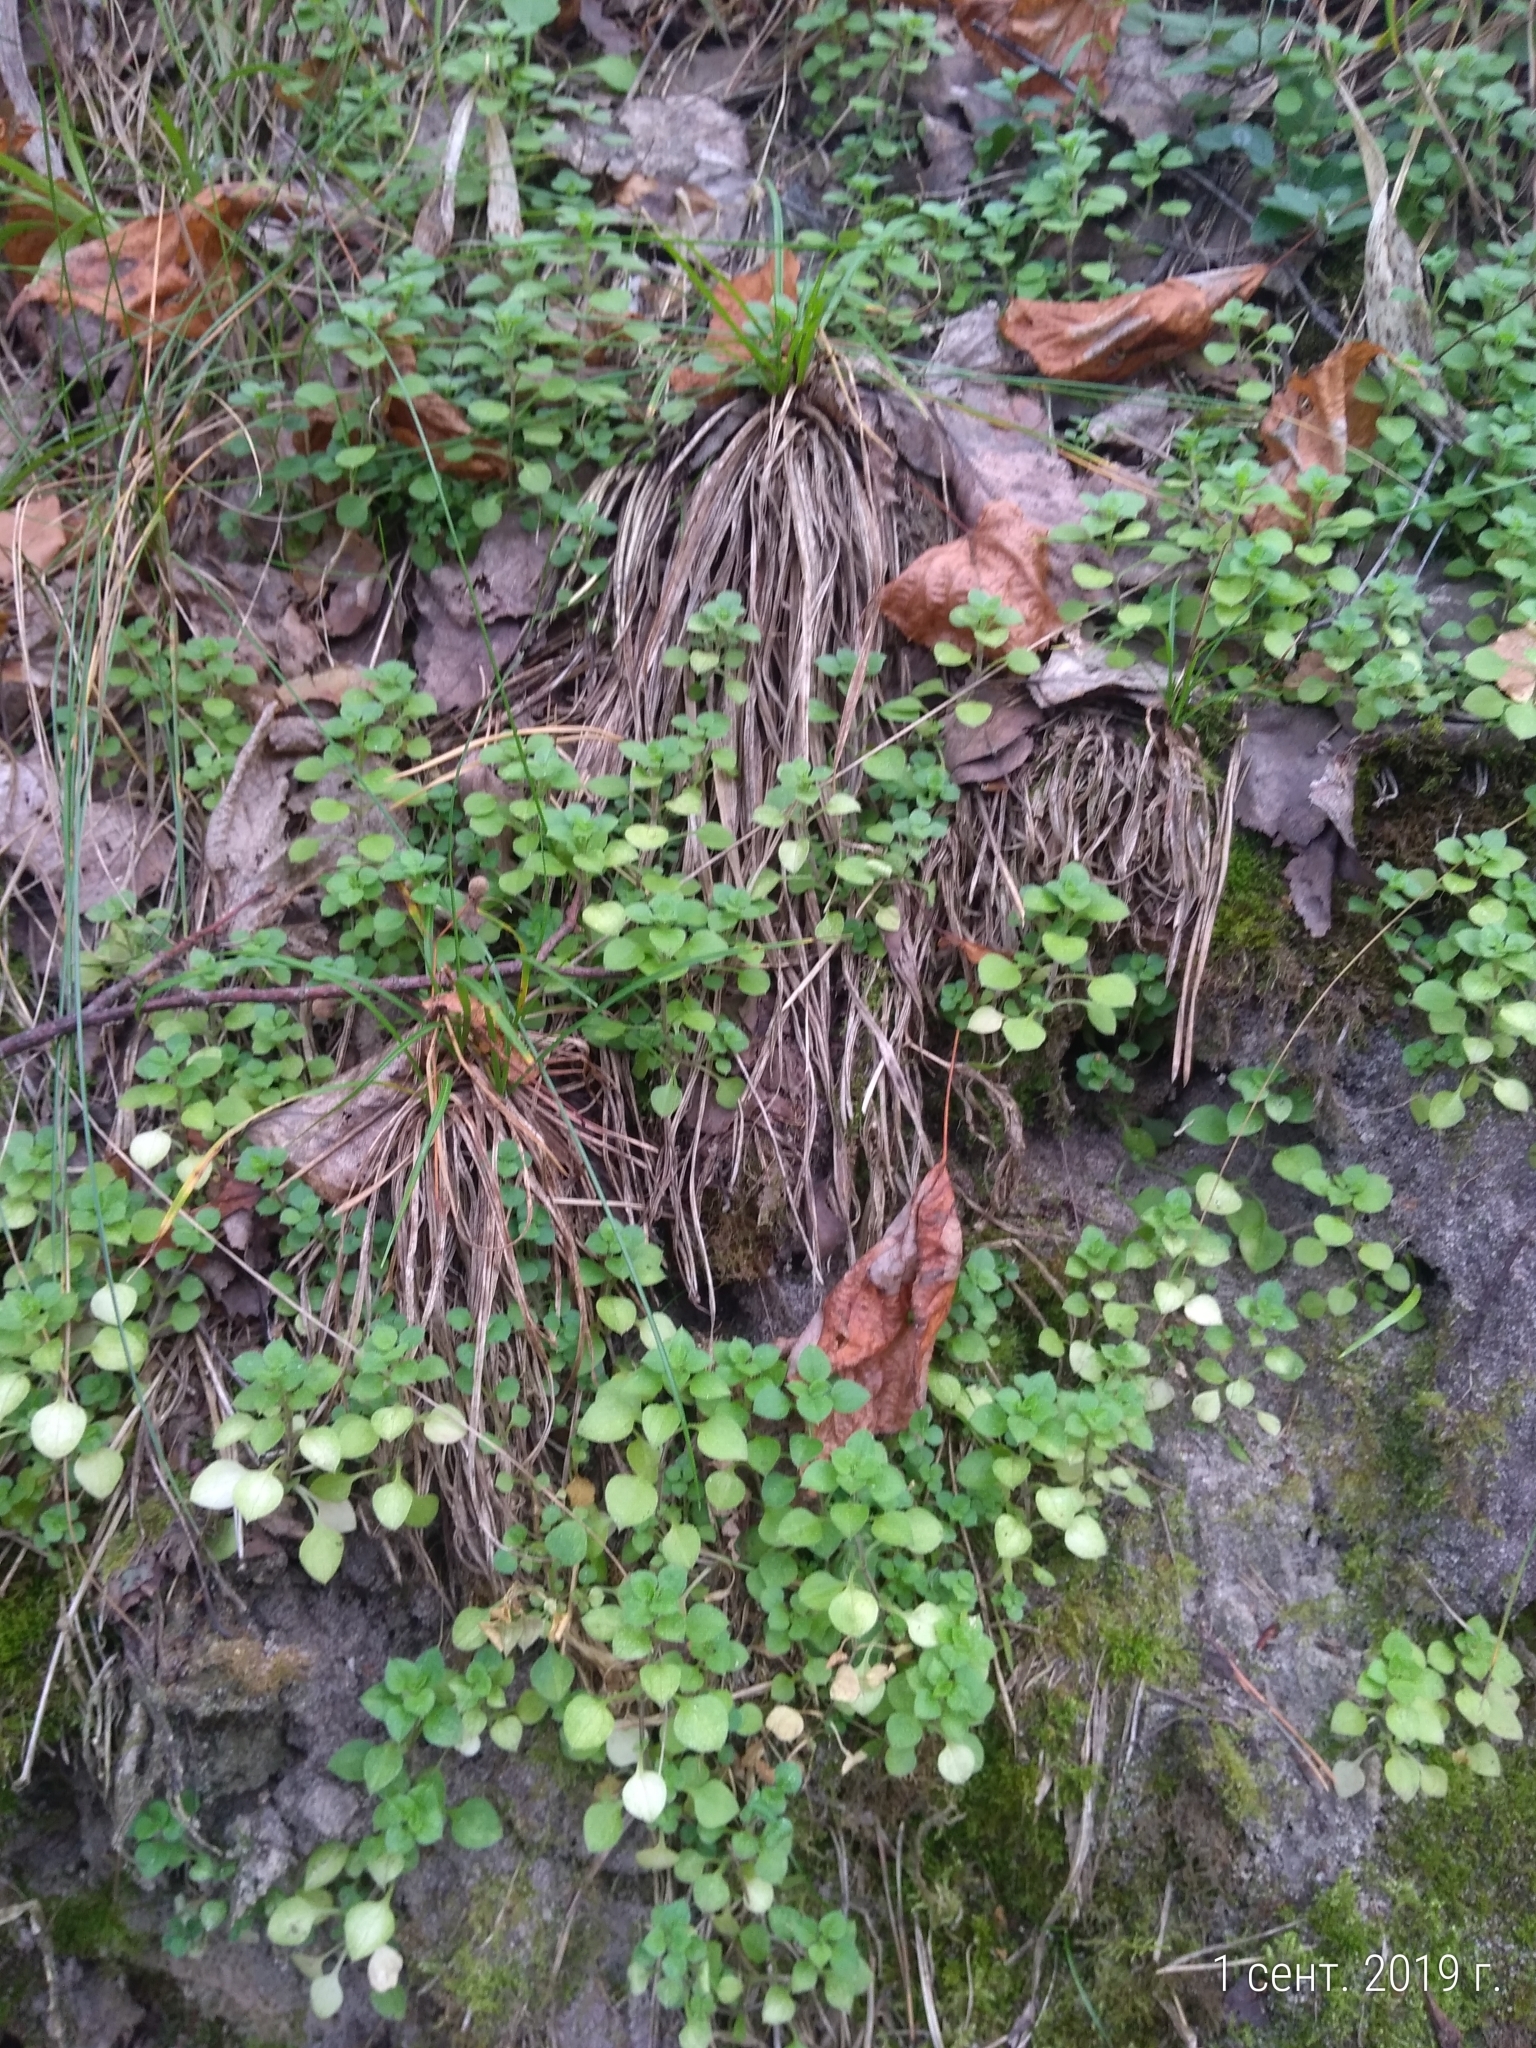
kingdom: Plantae
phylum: Tracheophyta
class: Magnoliopsida
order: Caryophyllales
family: Caryophyllaceae
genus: Stellaria
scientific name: Stellaria media
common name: Common chickweed
